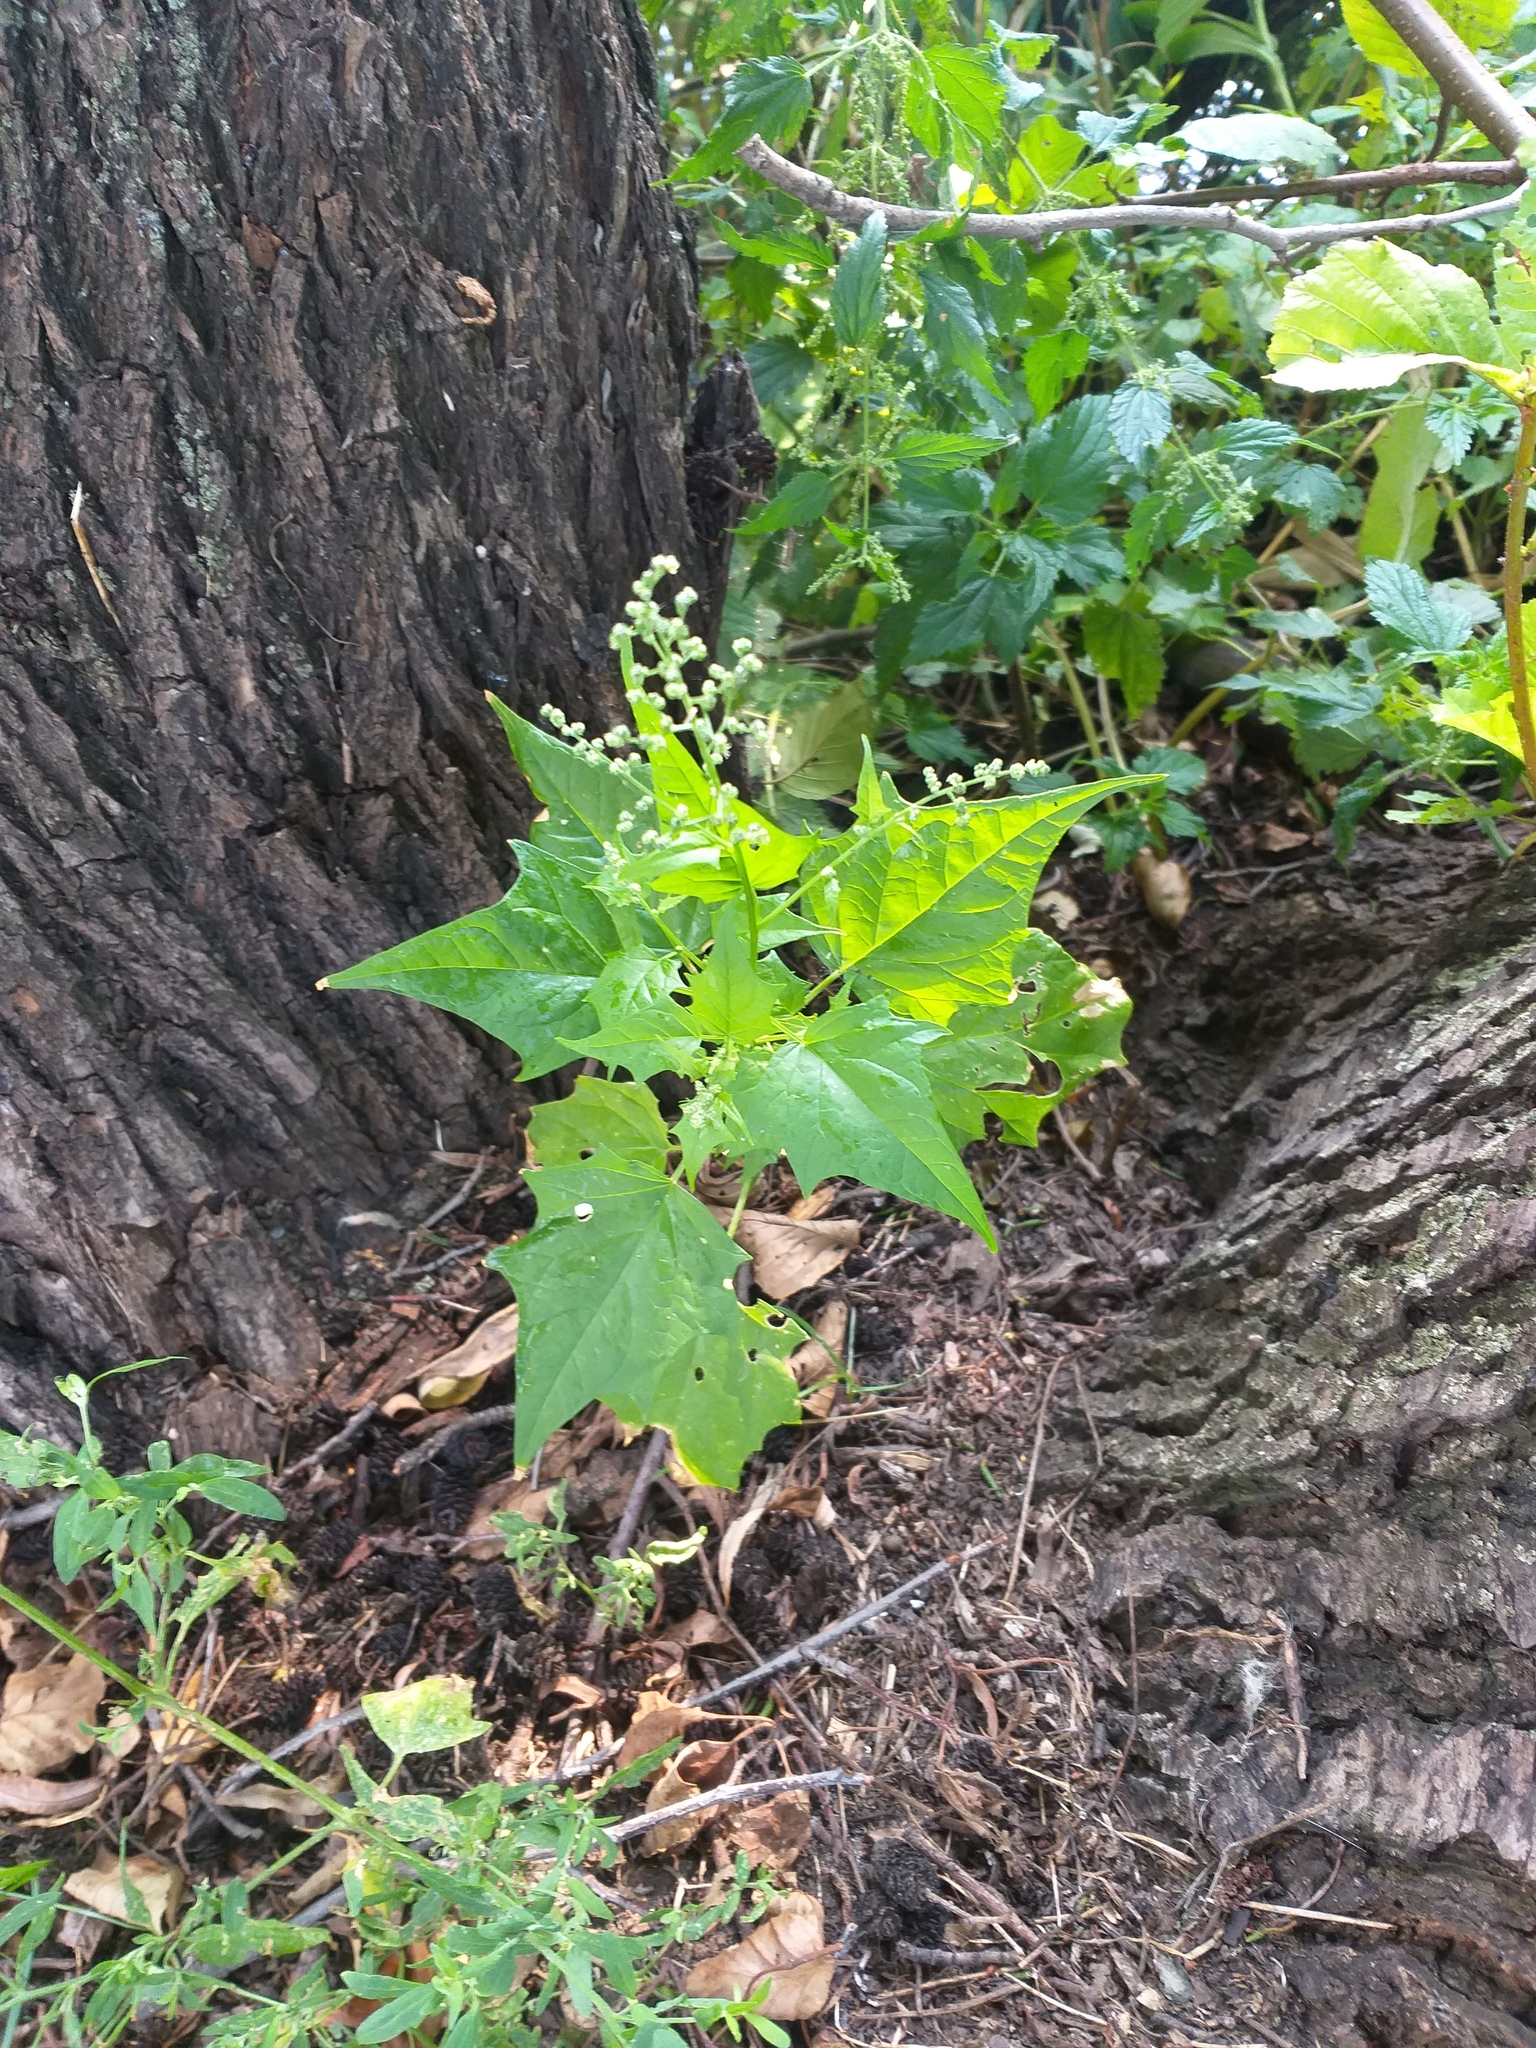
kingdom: Plantae
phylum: Tracheophyta
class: Magnoliopsida
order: Caryophyllales
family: Amaranthaceae
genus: Chenopodiastrum
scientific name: Chenopodiastrum hybridum
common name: Mapleleaf goosefoot
